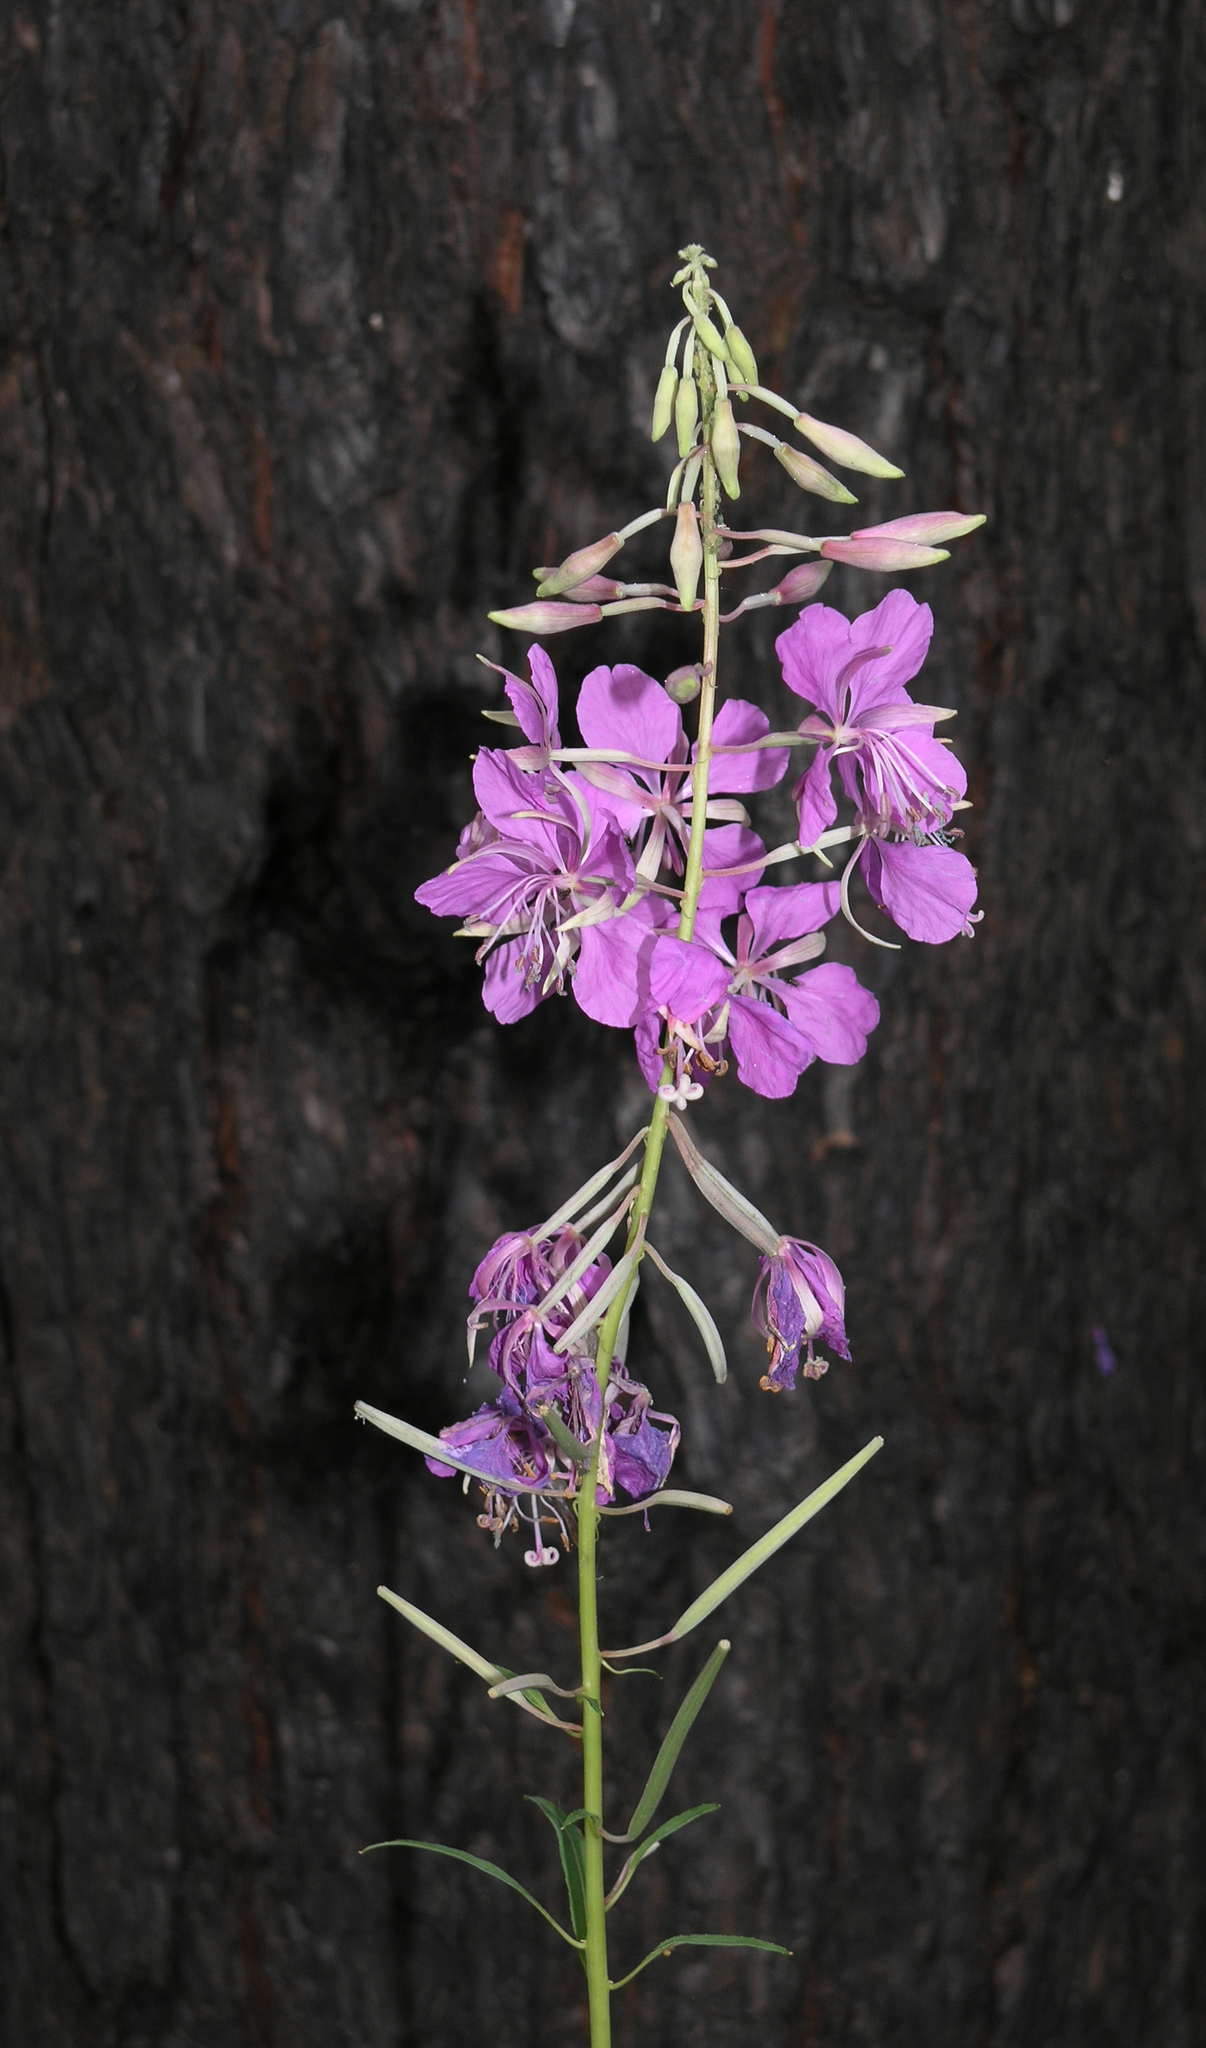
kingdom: Plantae
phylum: Tracheophyta
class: Magnoliopsida
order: Myrtales
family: Onagraceae
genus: Chamaenerion
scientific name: Chamaenerion angustifolium
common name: Fireweed
